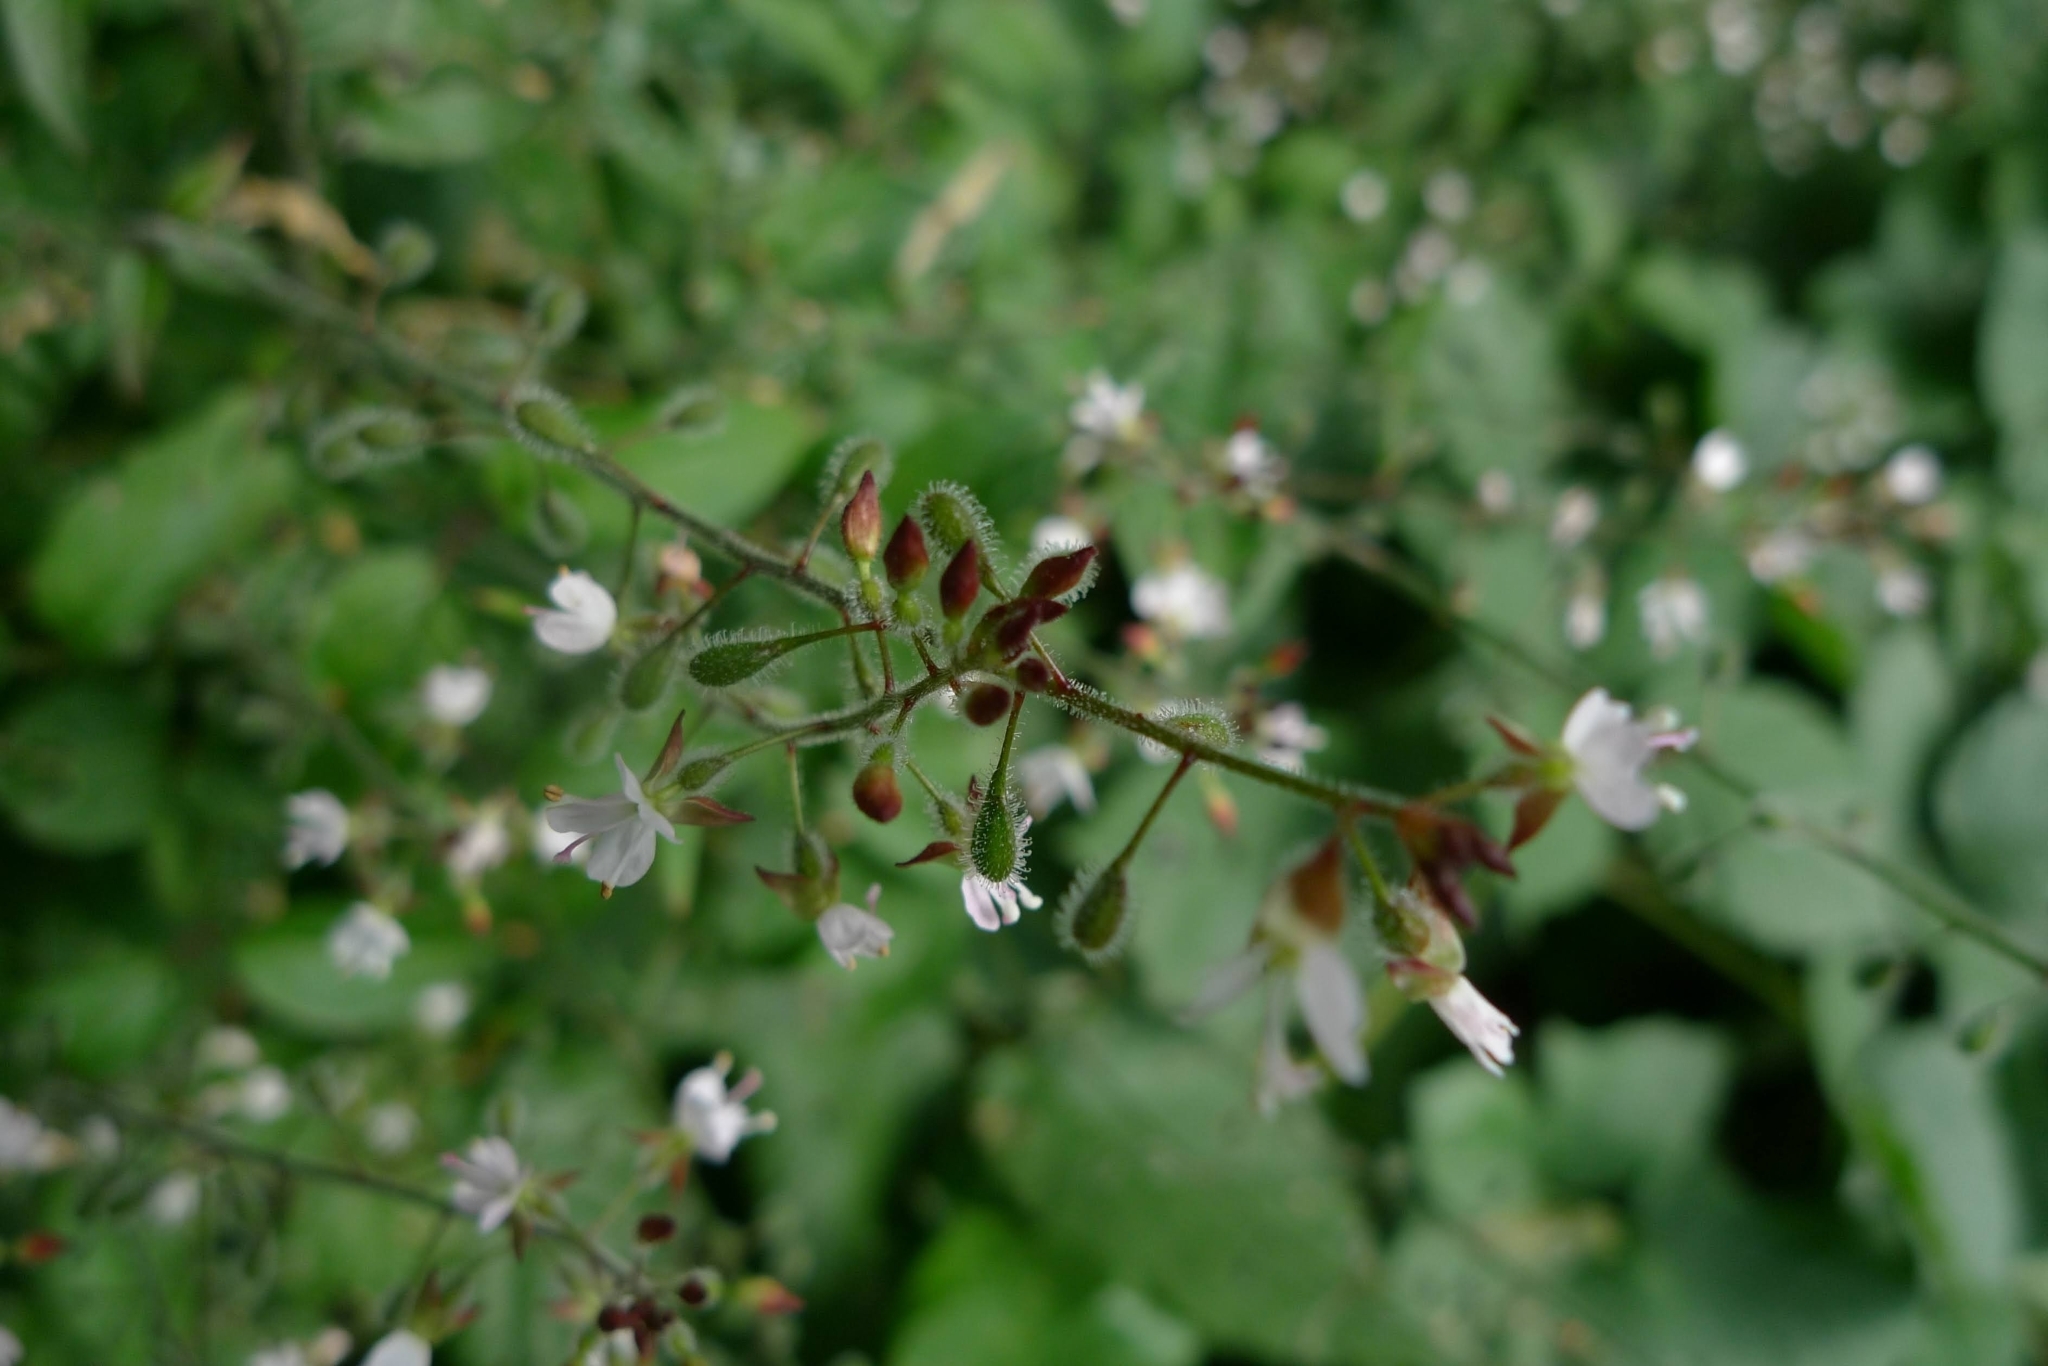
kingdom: Plantae
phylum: Tracheophyta
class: Magnoliopsida
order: Myrtales
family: Onagraceae
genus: Circaea
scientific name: Circaea lutetiana
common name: Enchanter's-nightshade
